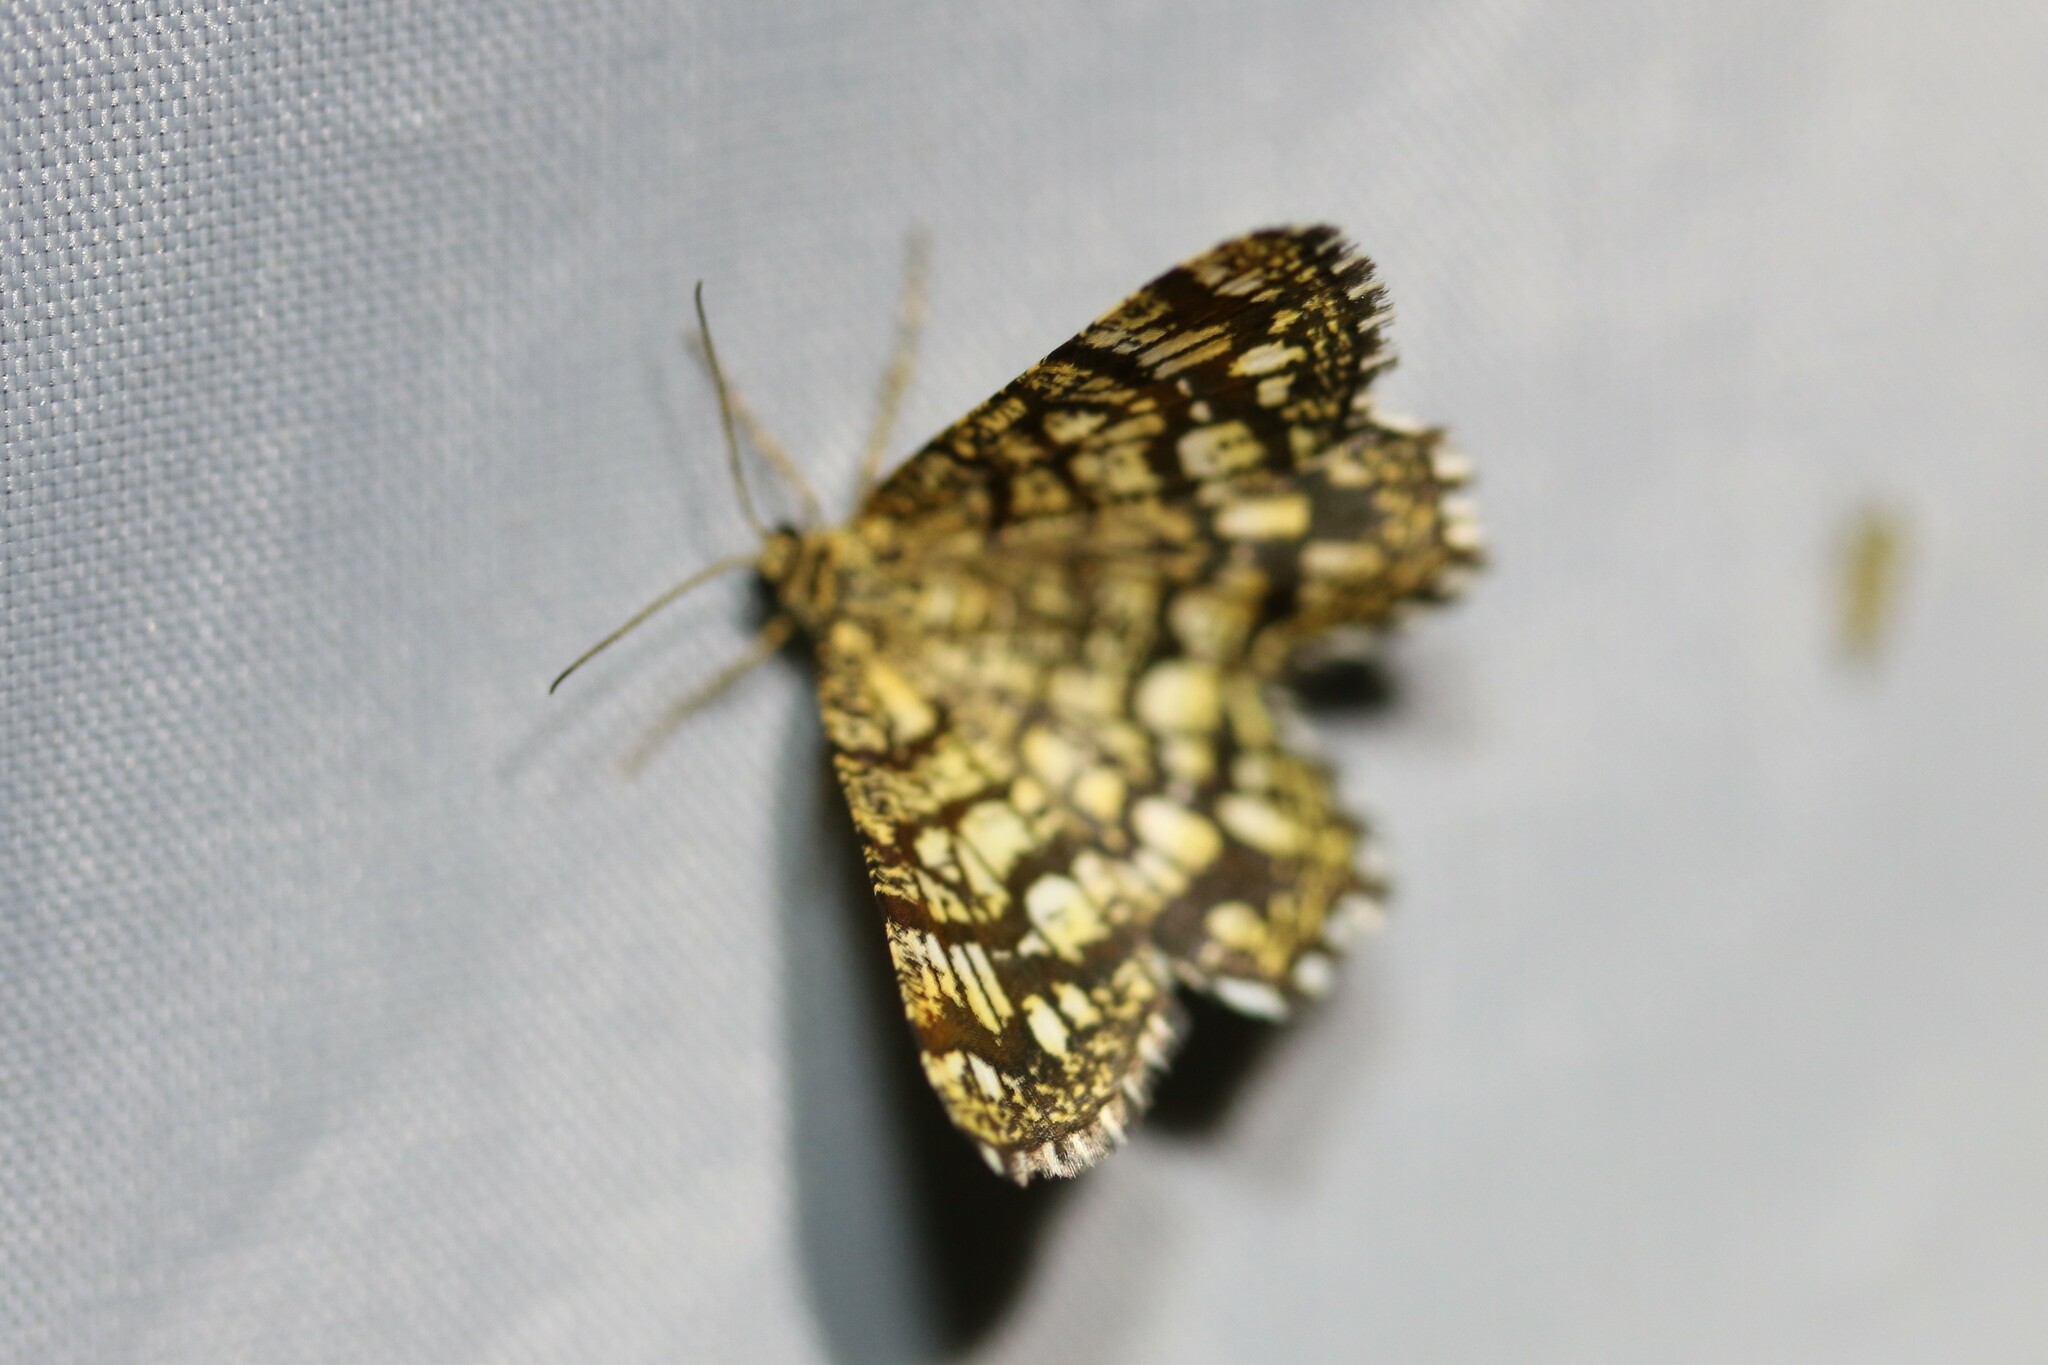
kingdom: Animalia
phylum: Arthropoda
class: Insecta
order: Lepidoptera
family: Geometridae
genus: Chiasmia
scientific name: Chiasmia clathrata
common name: Latticed heath
